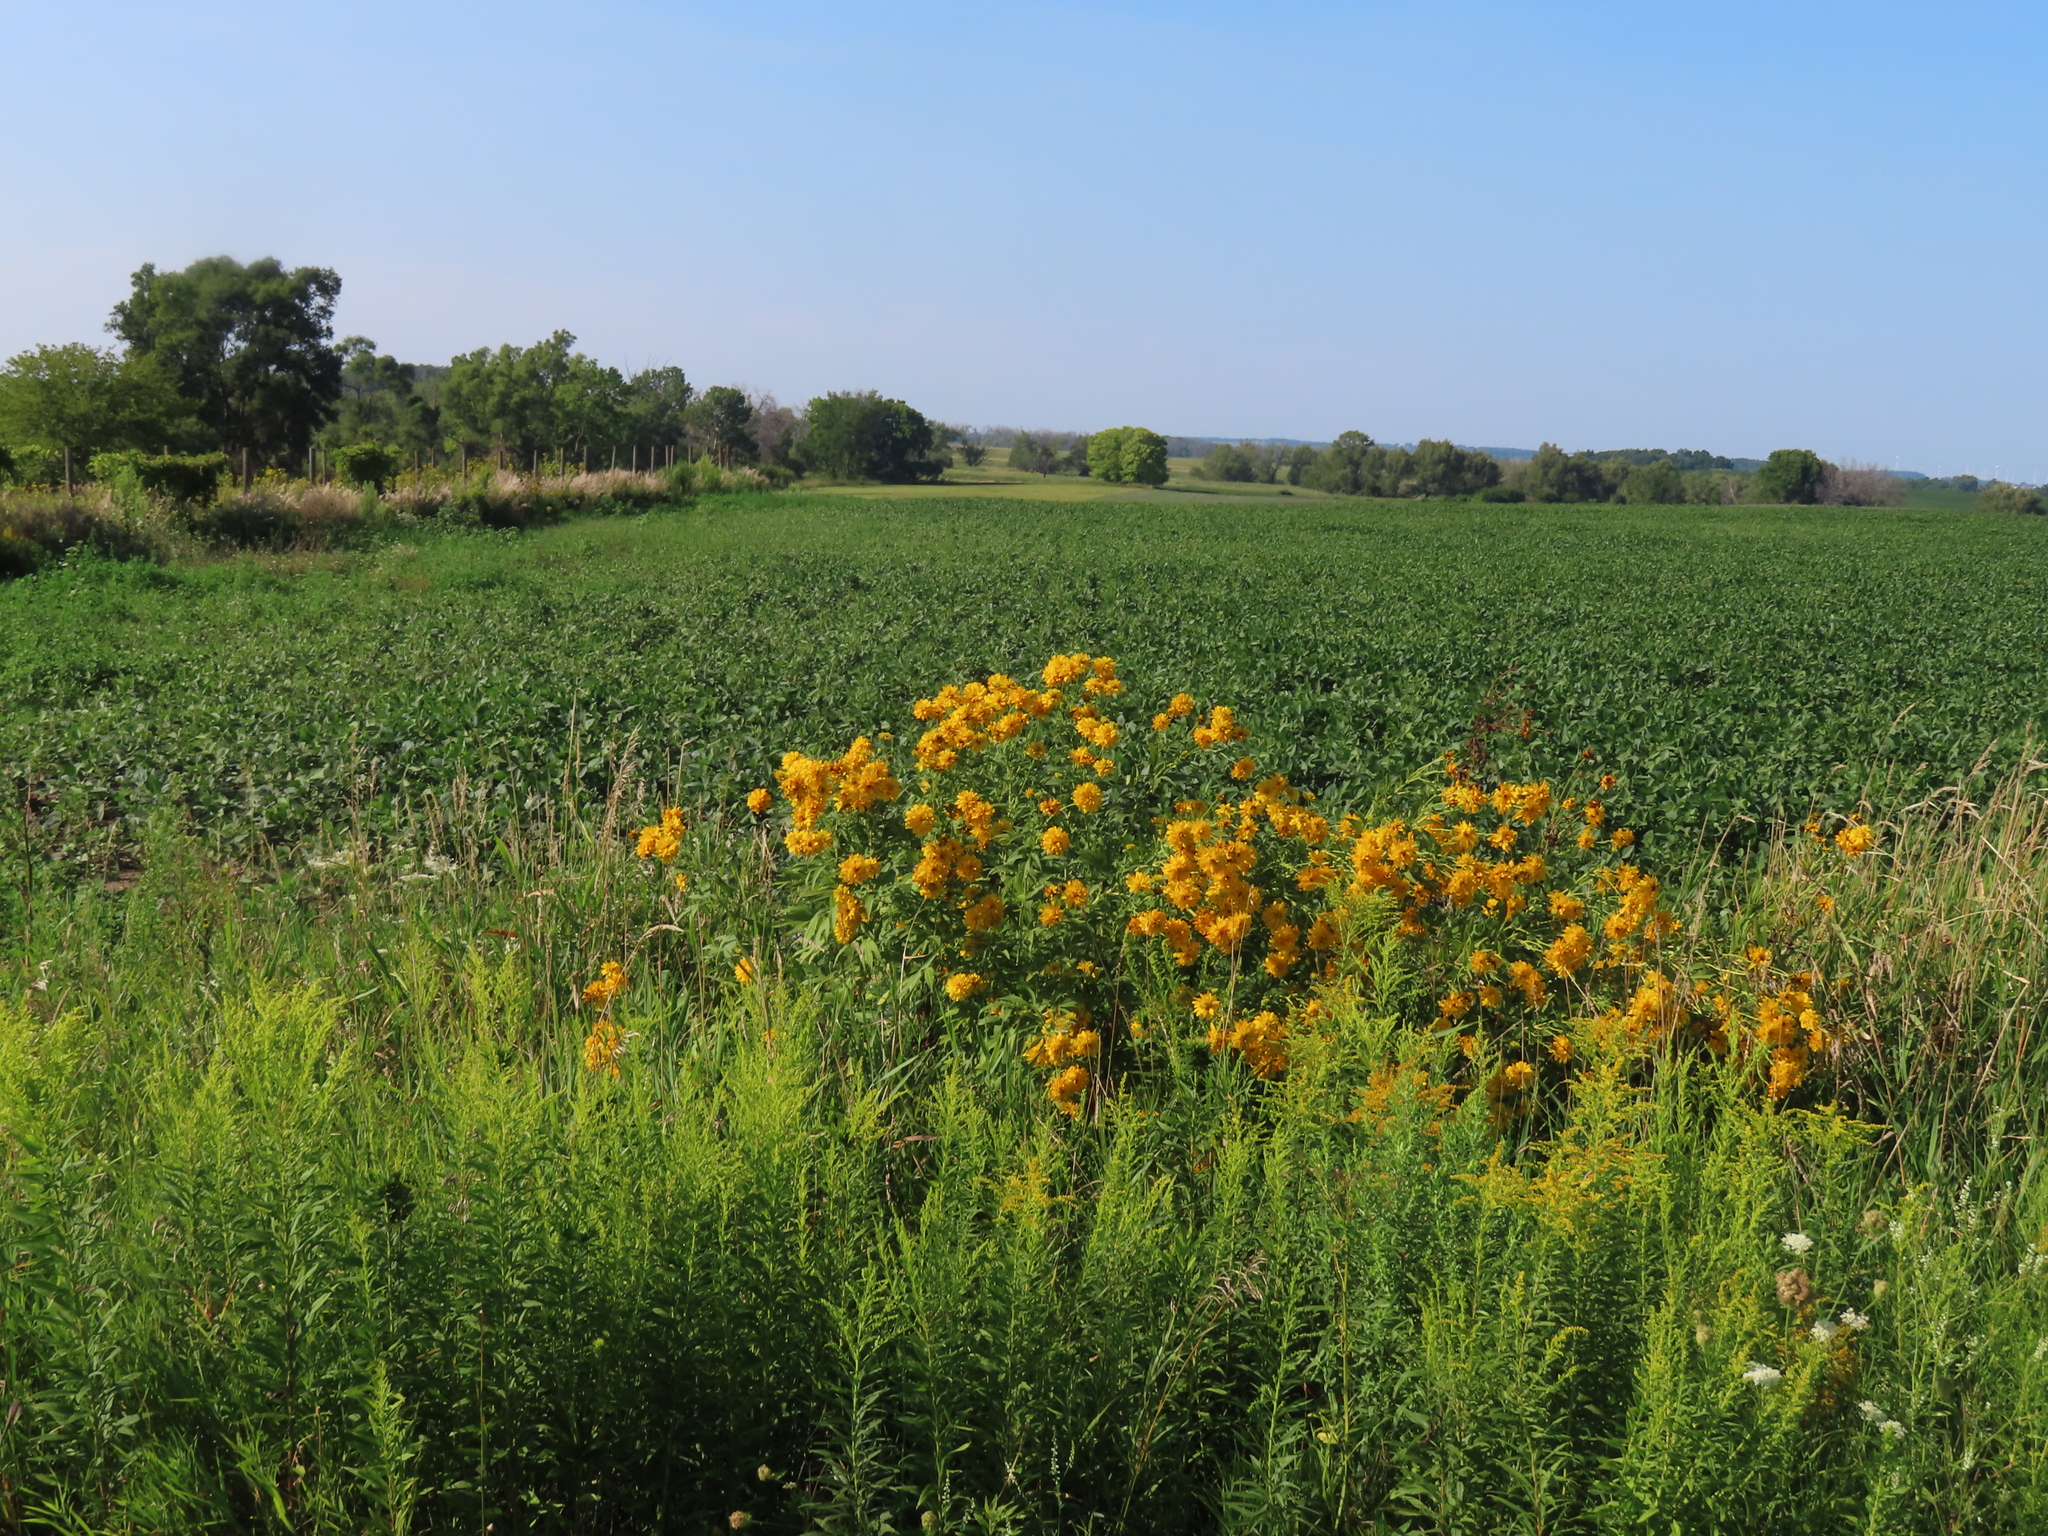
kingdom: Plantae
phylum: Tracheophyta
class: Magnoliopsida
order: Asterales
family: Asteraceae
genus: Rudbeckia
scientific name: Rudbeckia laciniata
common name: Coneflower
